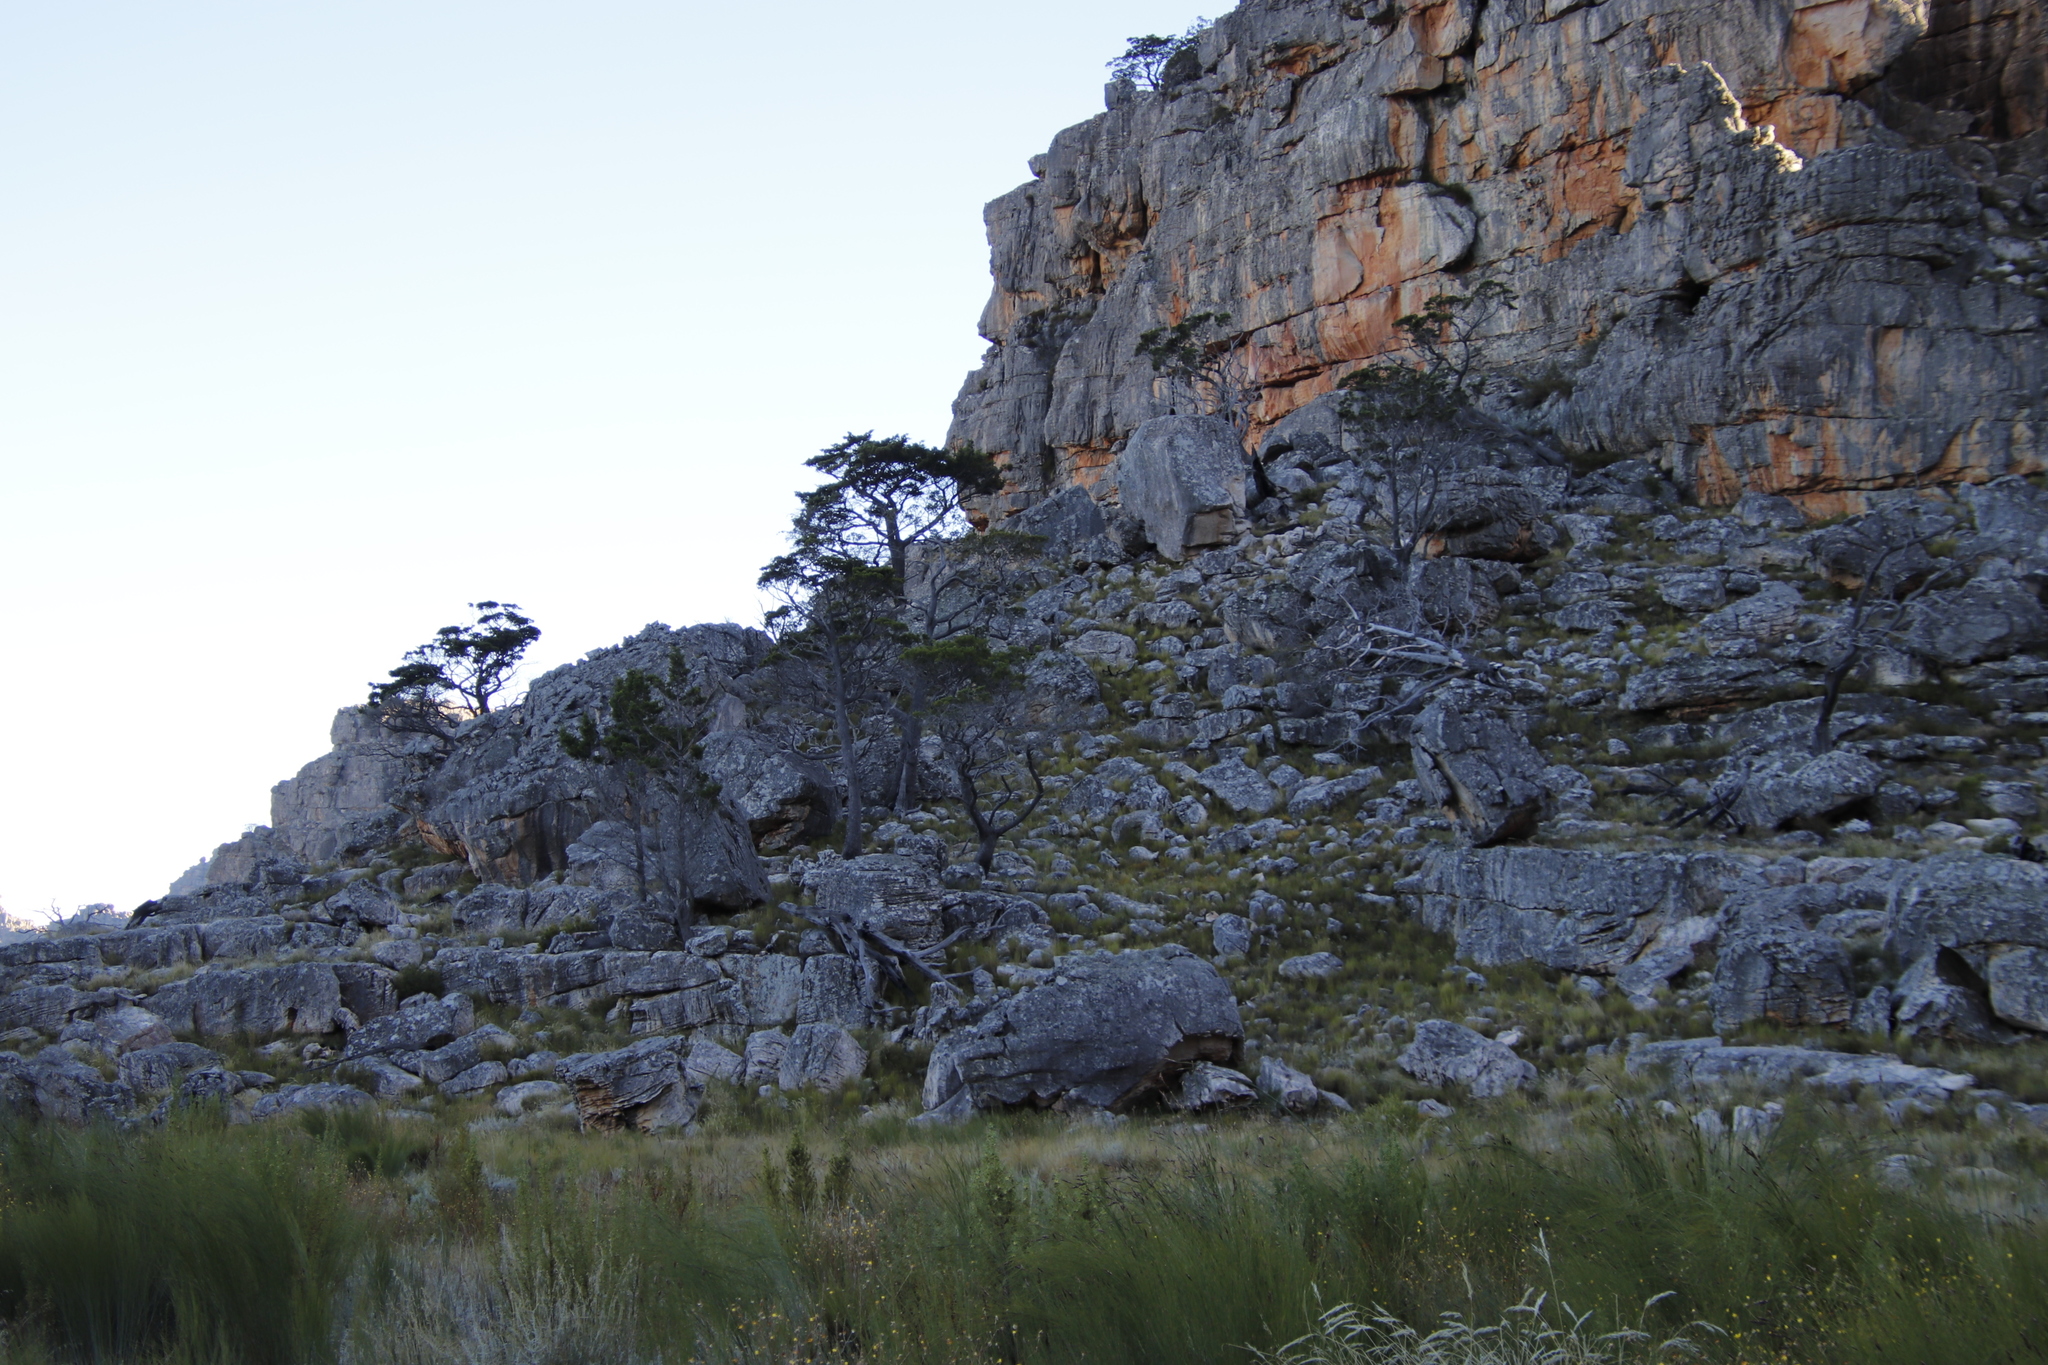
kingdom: Plantae
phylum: Tracheophyta
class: Pinopsida
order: Pinales
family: Cupressaceae
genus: Widdringtonia
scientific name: Widdringtonia nodiflora
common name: Cape cypress
